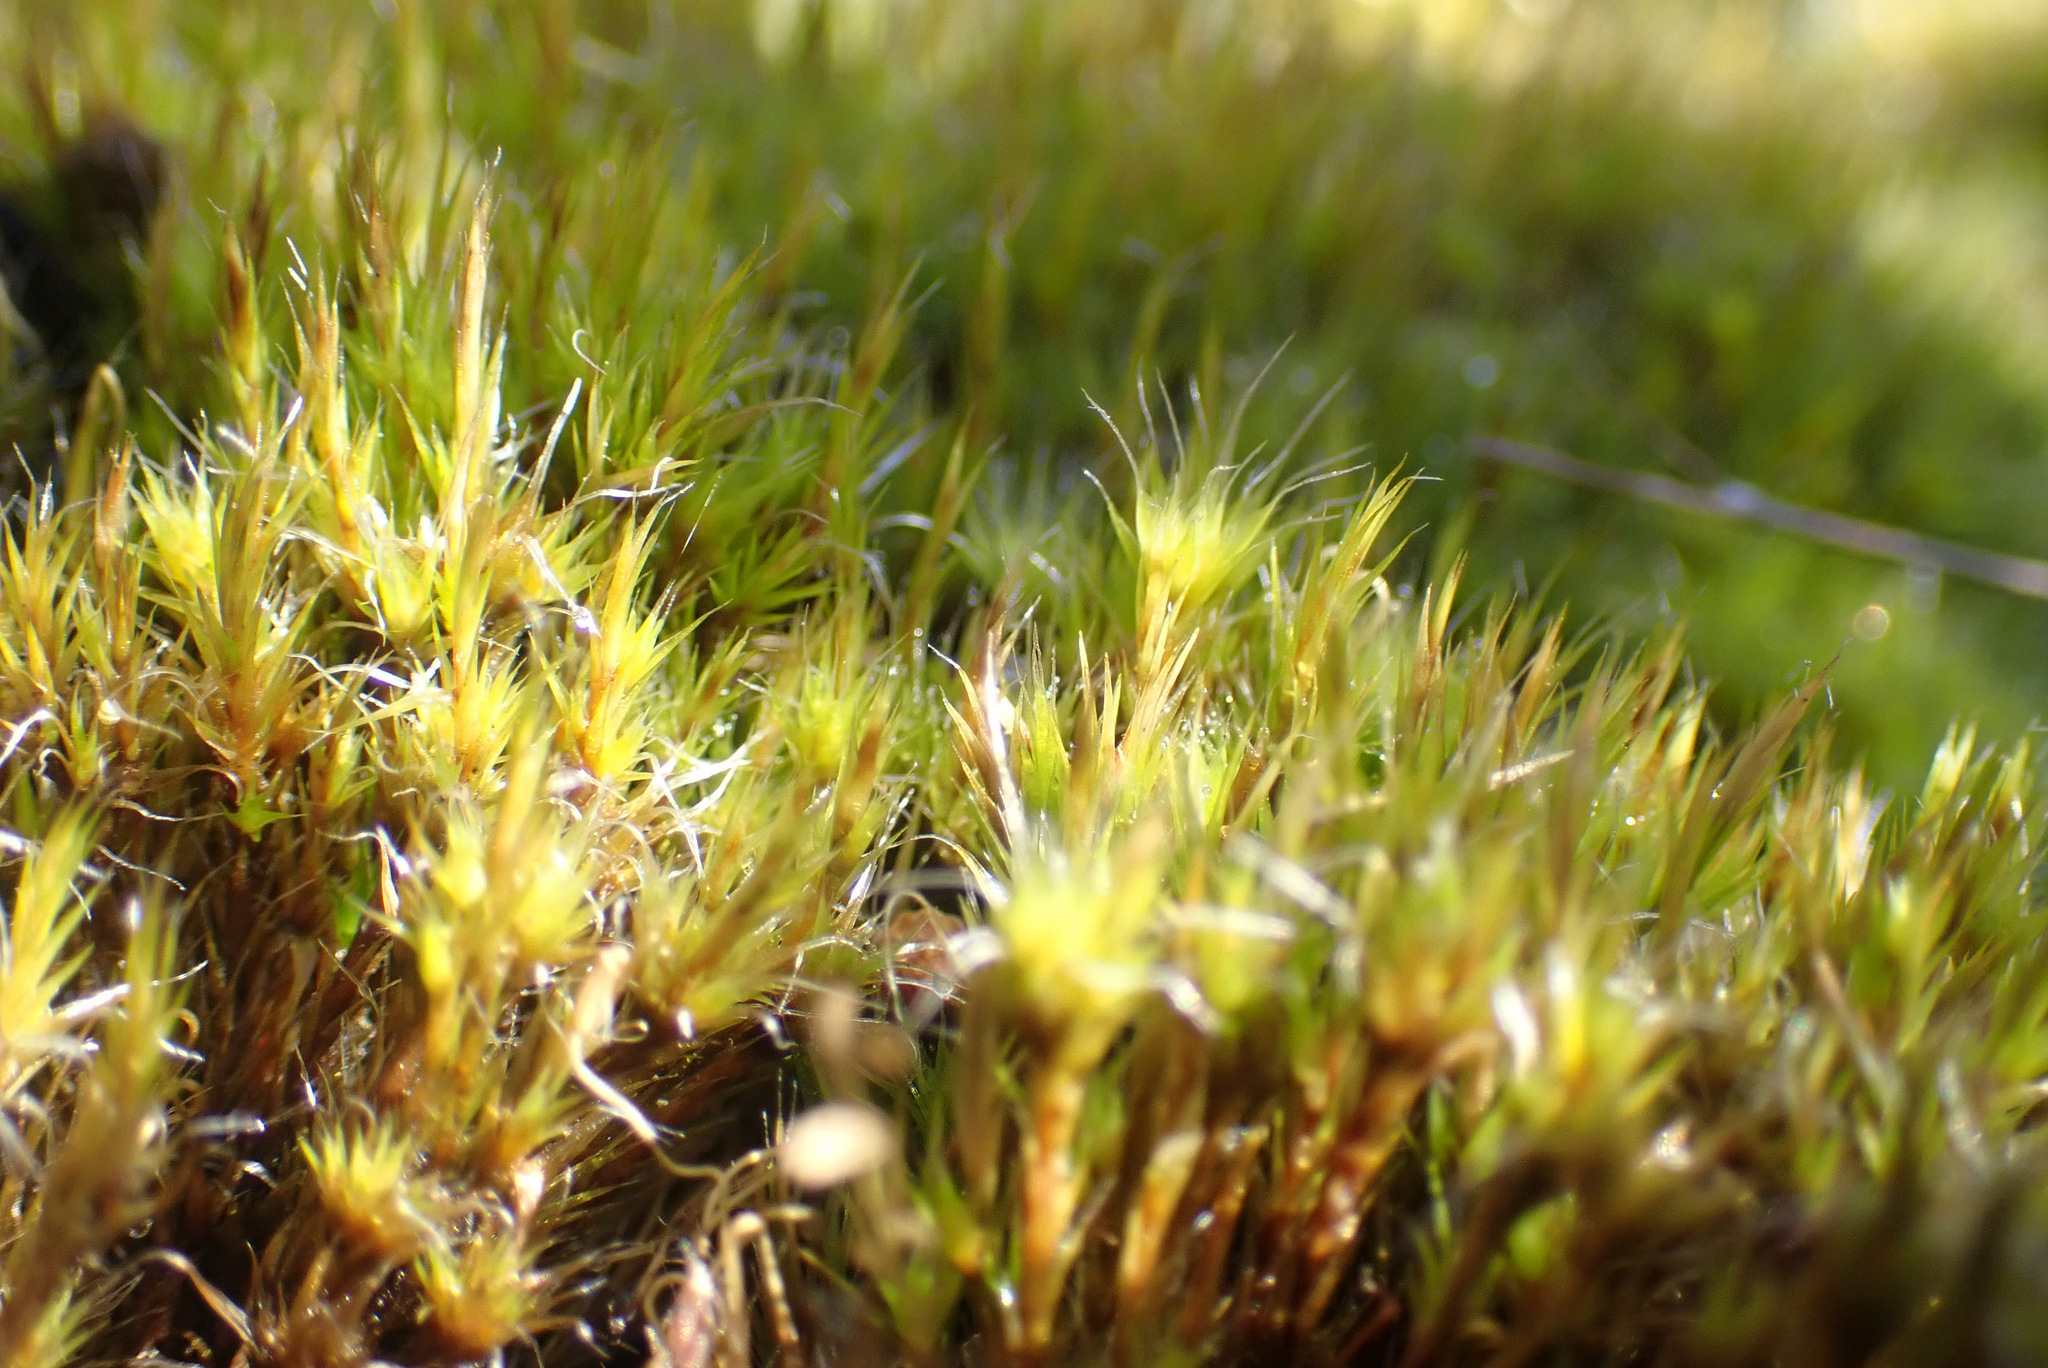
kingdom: Plantae
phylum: Bryophyta
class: Bryopsida
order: Dicranales
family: Leucobryaceae
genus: Campylopus
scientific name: Campylopus introflexus
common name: Heath star moss
